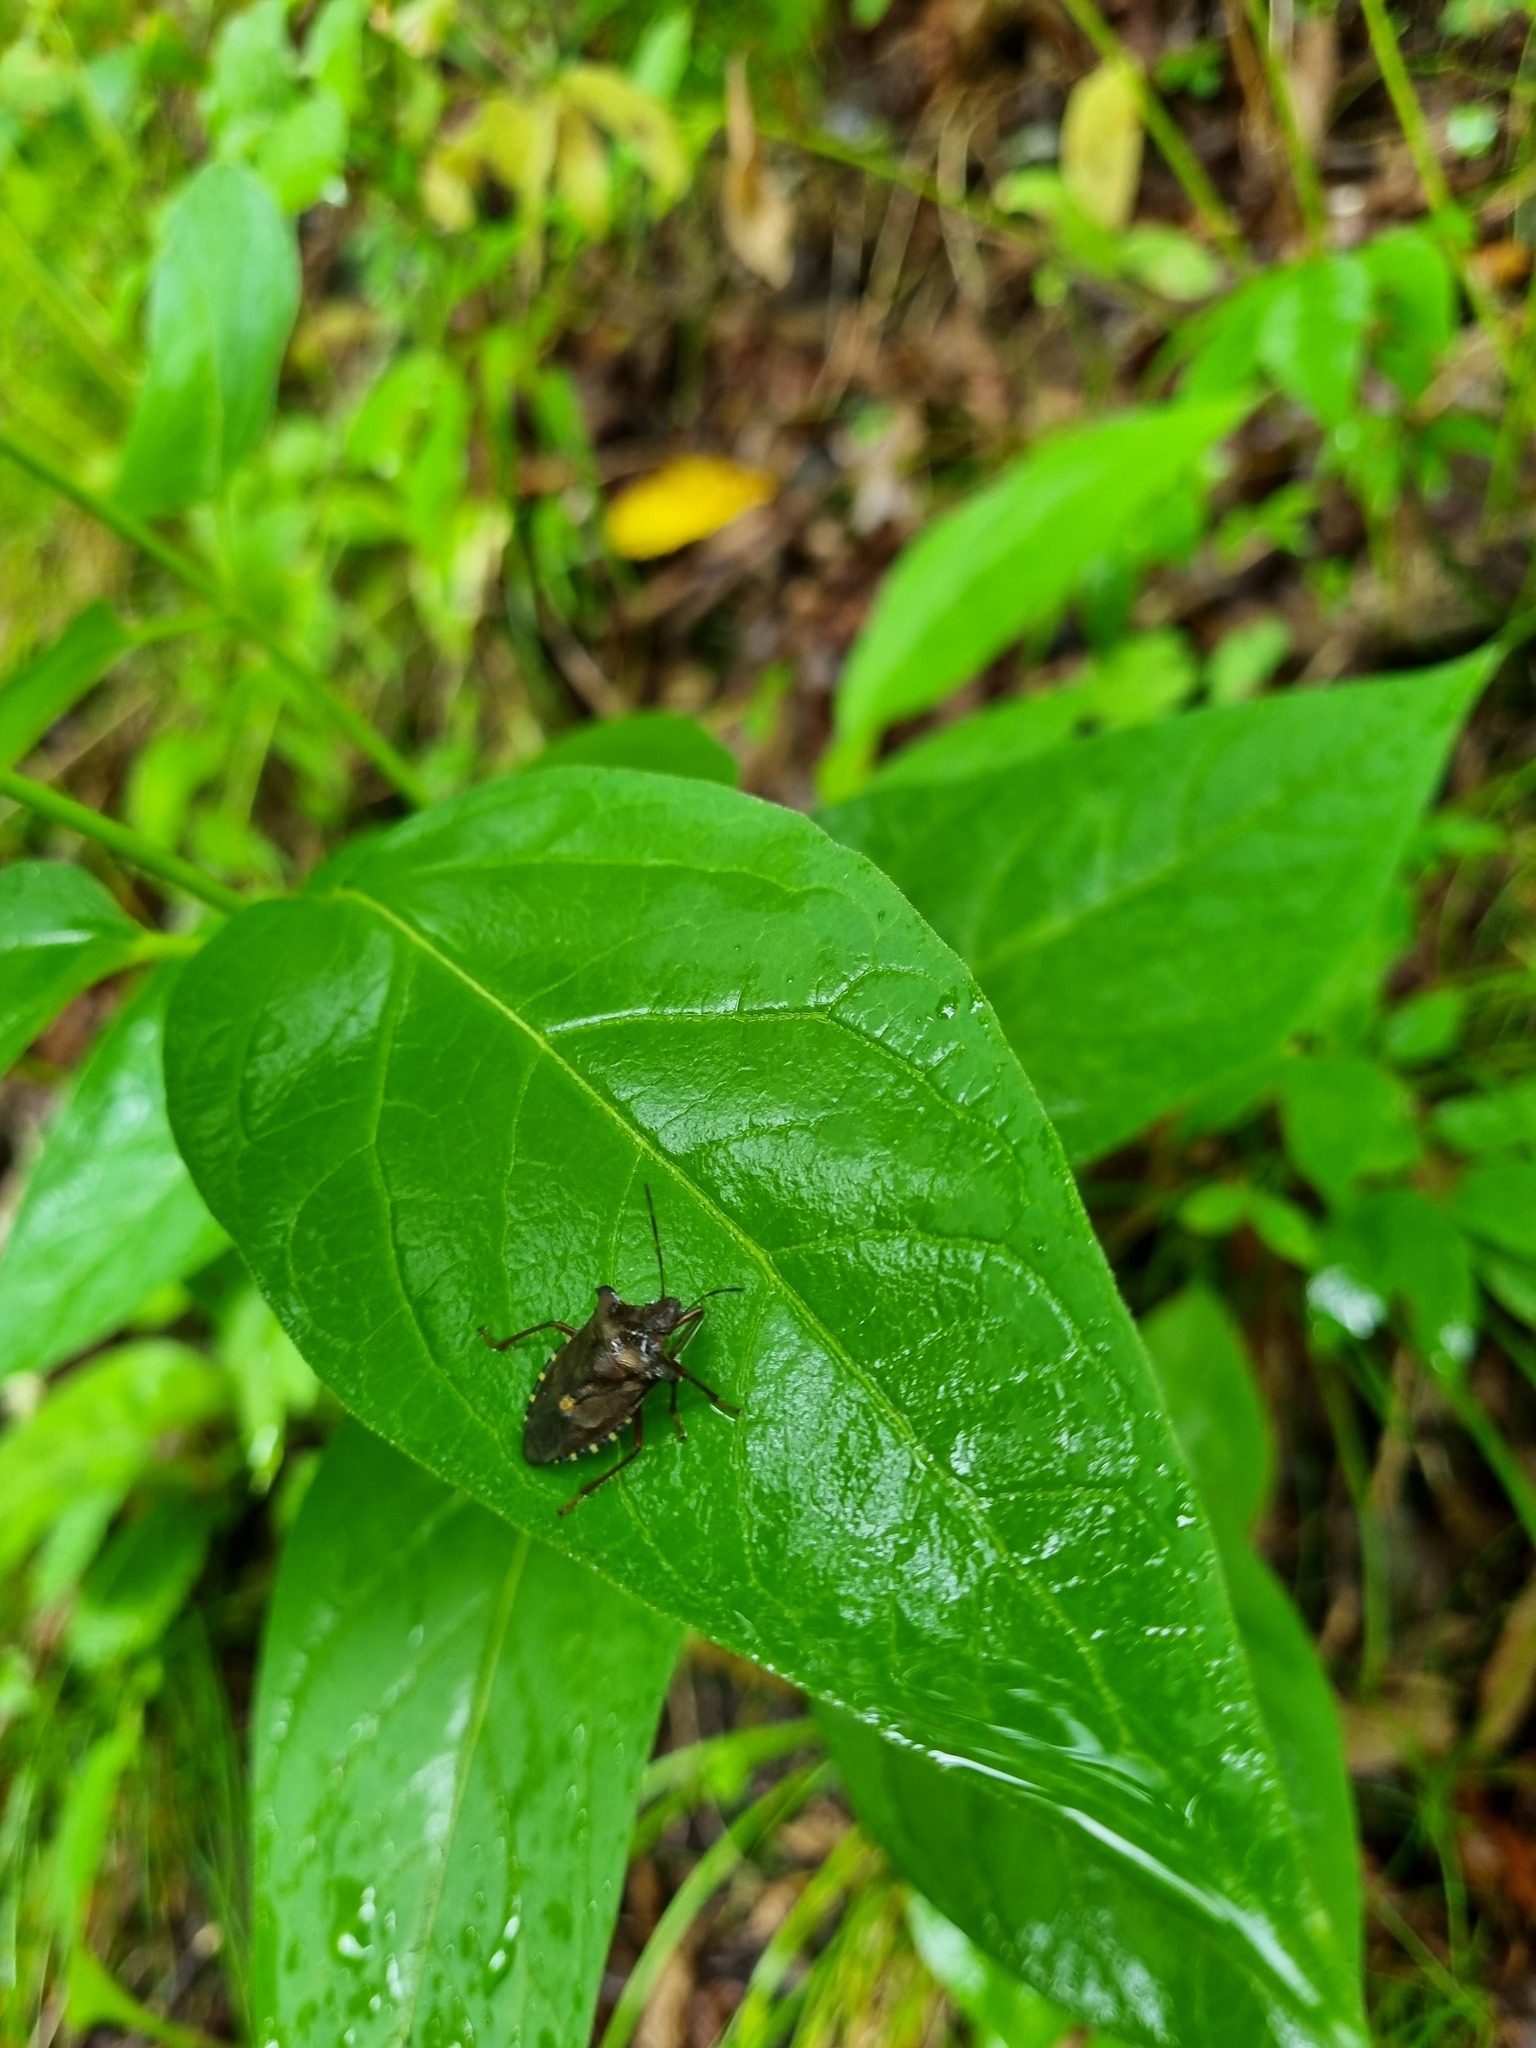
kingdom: Animalia
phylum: Arthropoda
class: Insecta
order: Hemiptera
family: Pentatomidae
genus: Pentatoma
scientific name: Pentatoma rufipes
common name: Forest bug
